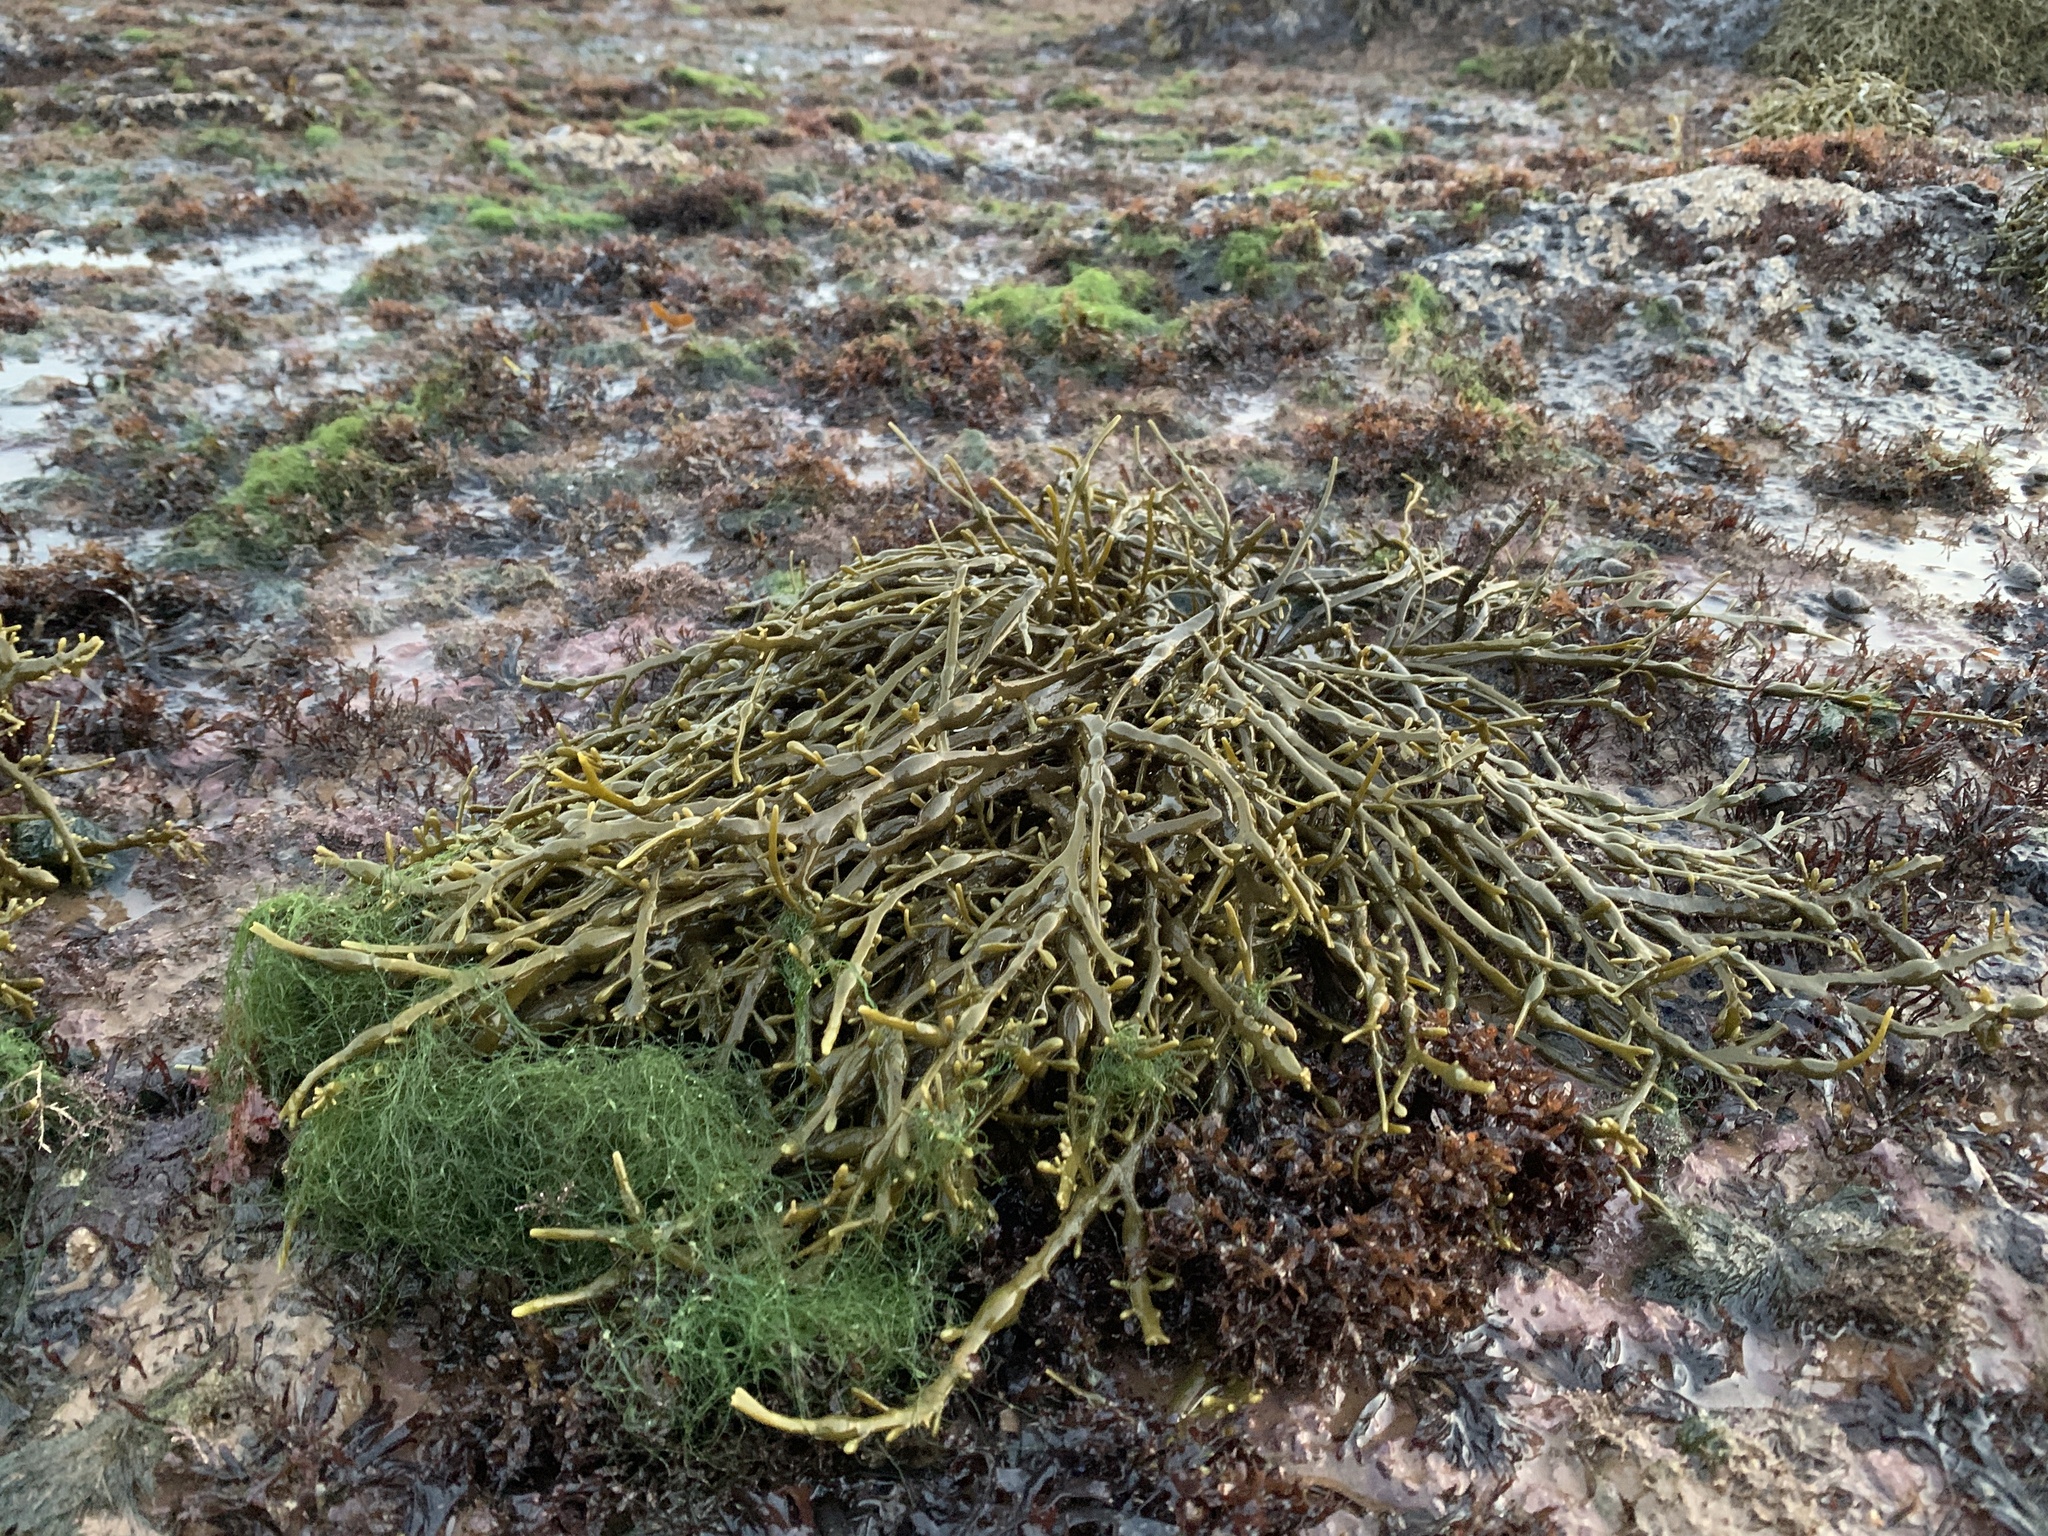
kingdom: Chromista
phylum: Ochrophyta
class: Phaeophyceae
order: Fucales
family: Fucaceae
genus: Ascophyllum
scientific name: Ascophyllum nodosum
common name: Knotted wrack
